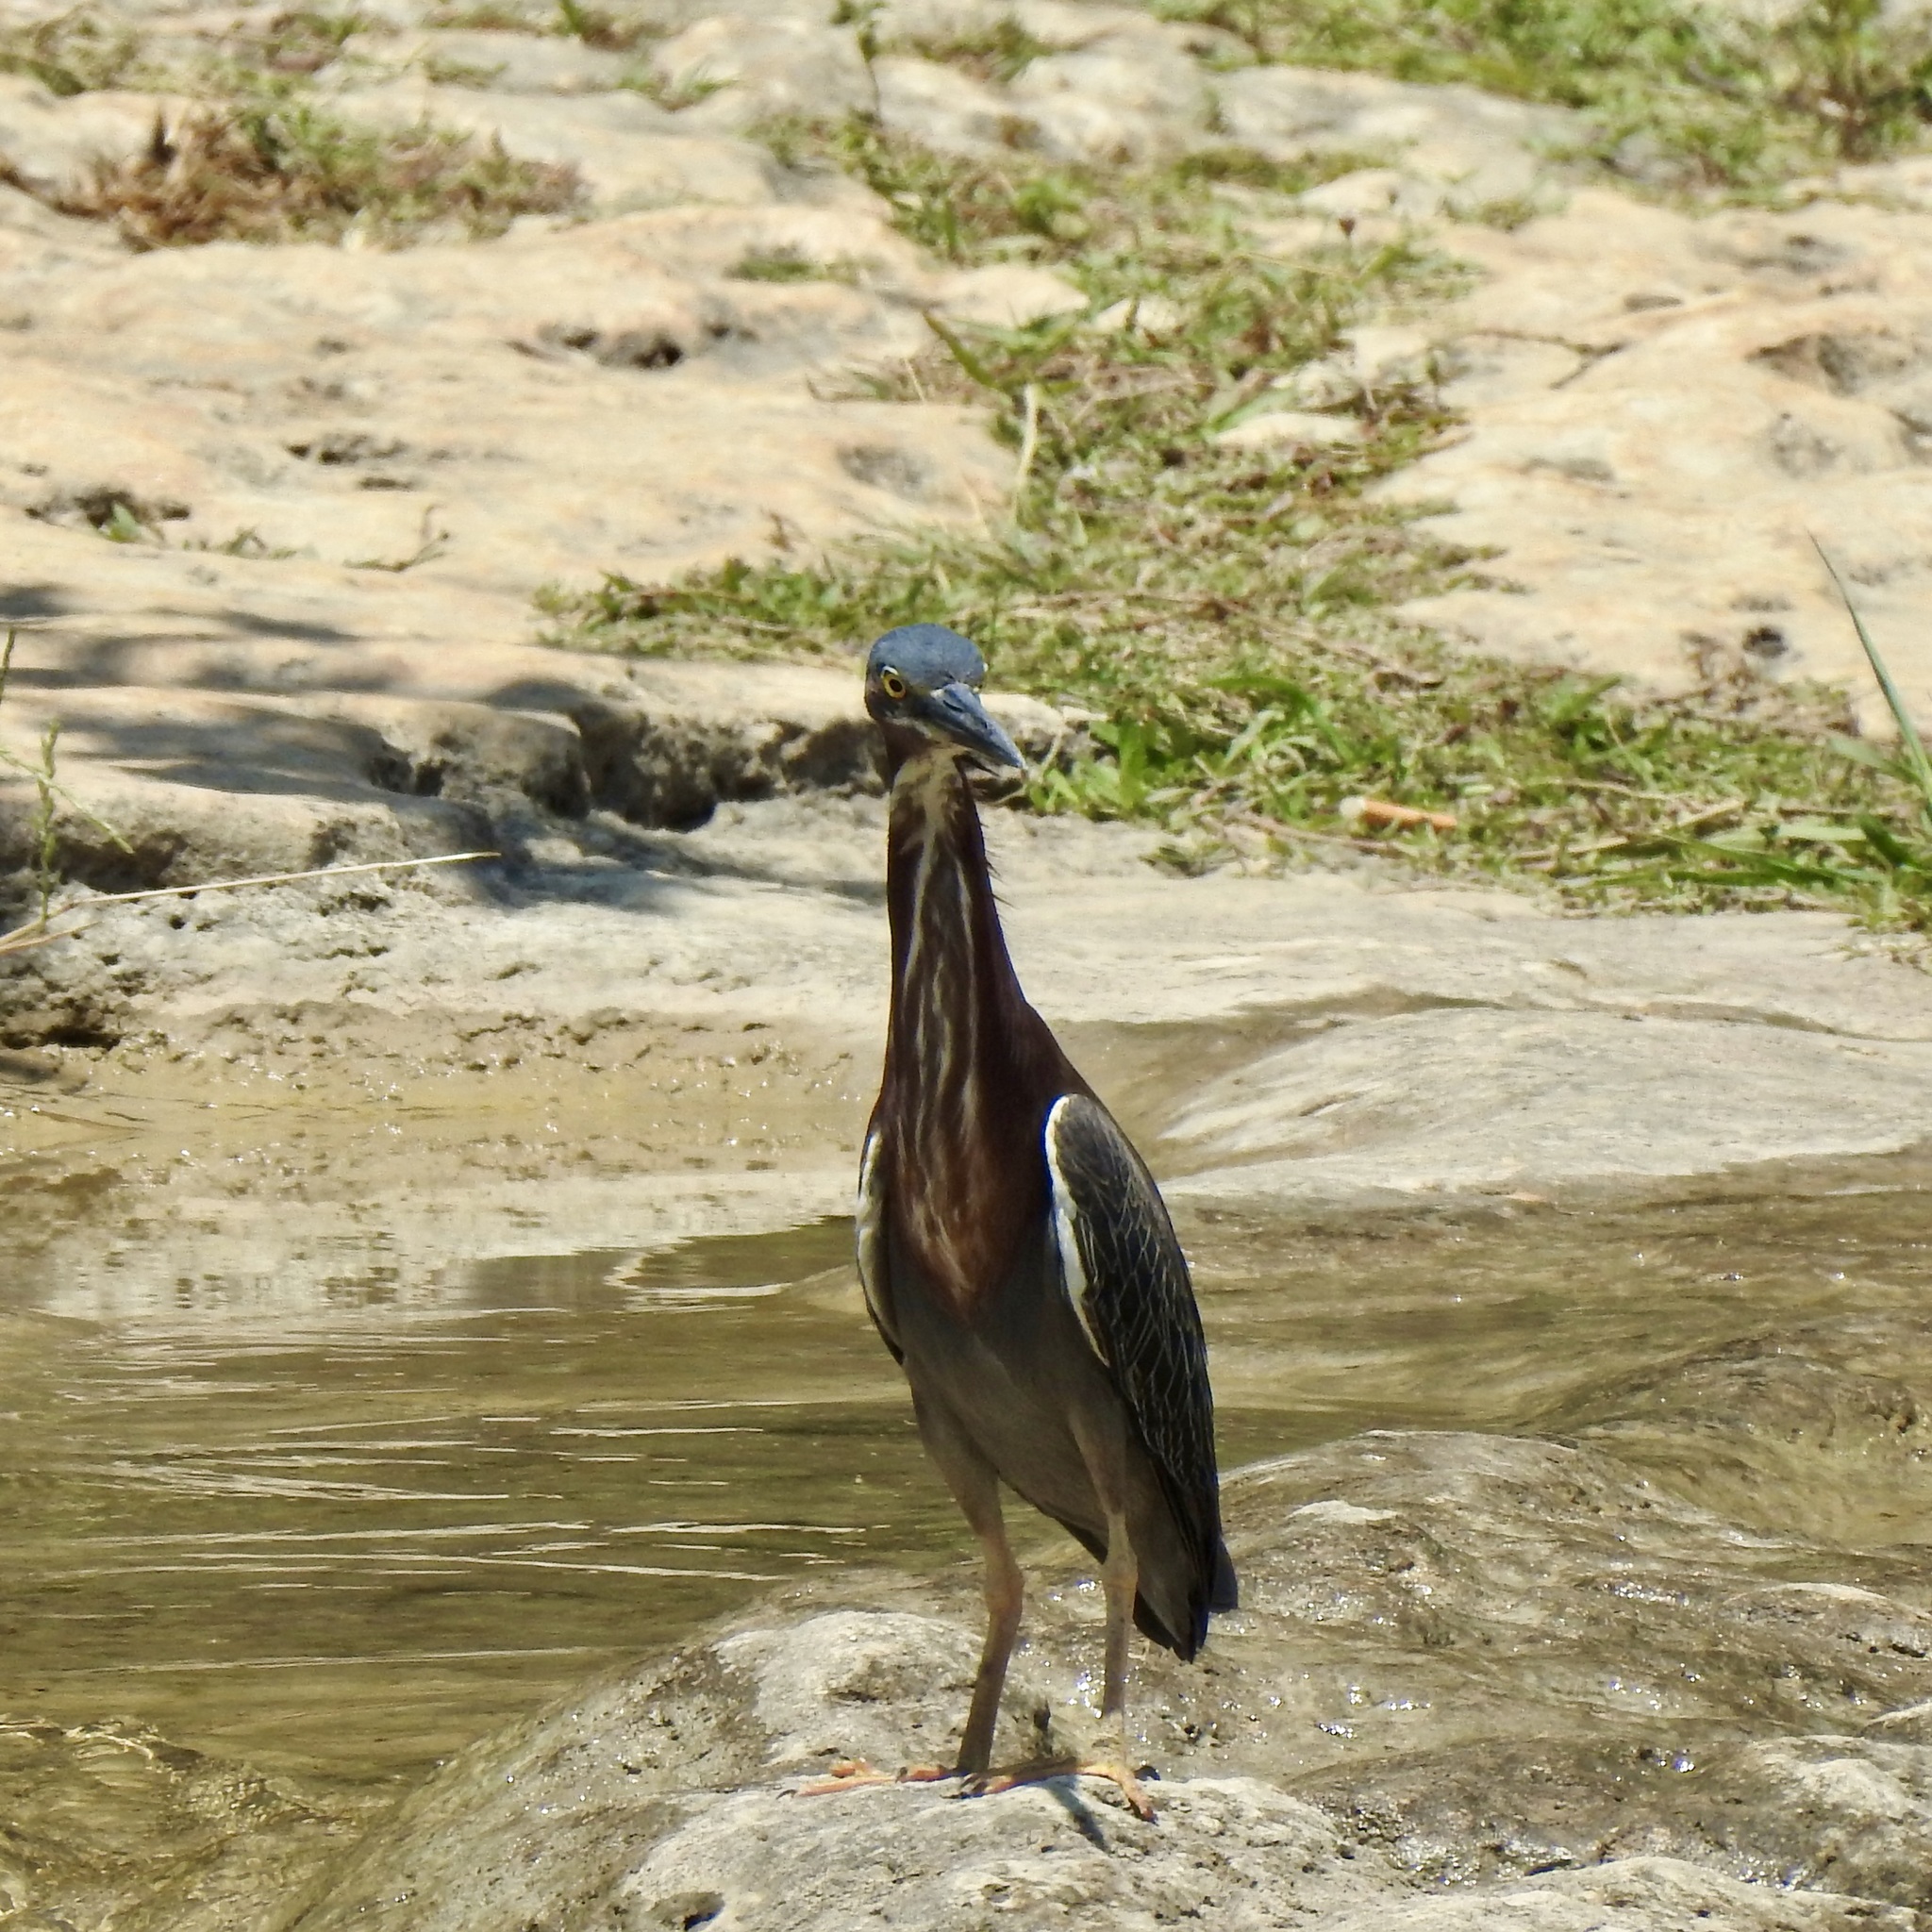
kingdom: Animalia
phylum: Chordata
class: Aves
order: Pelecaniformes
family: Ardeidae
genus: Butorides
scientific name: Butorides virescens
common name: Green heron
